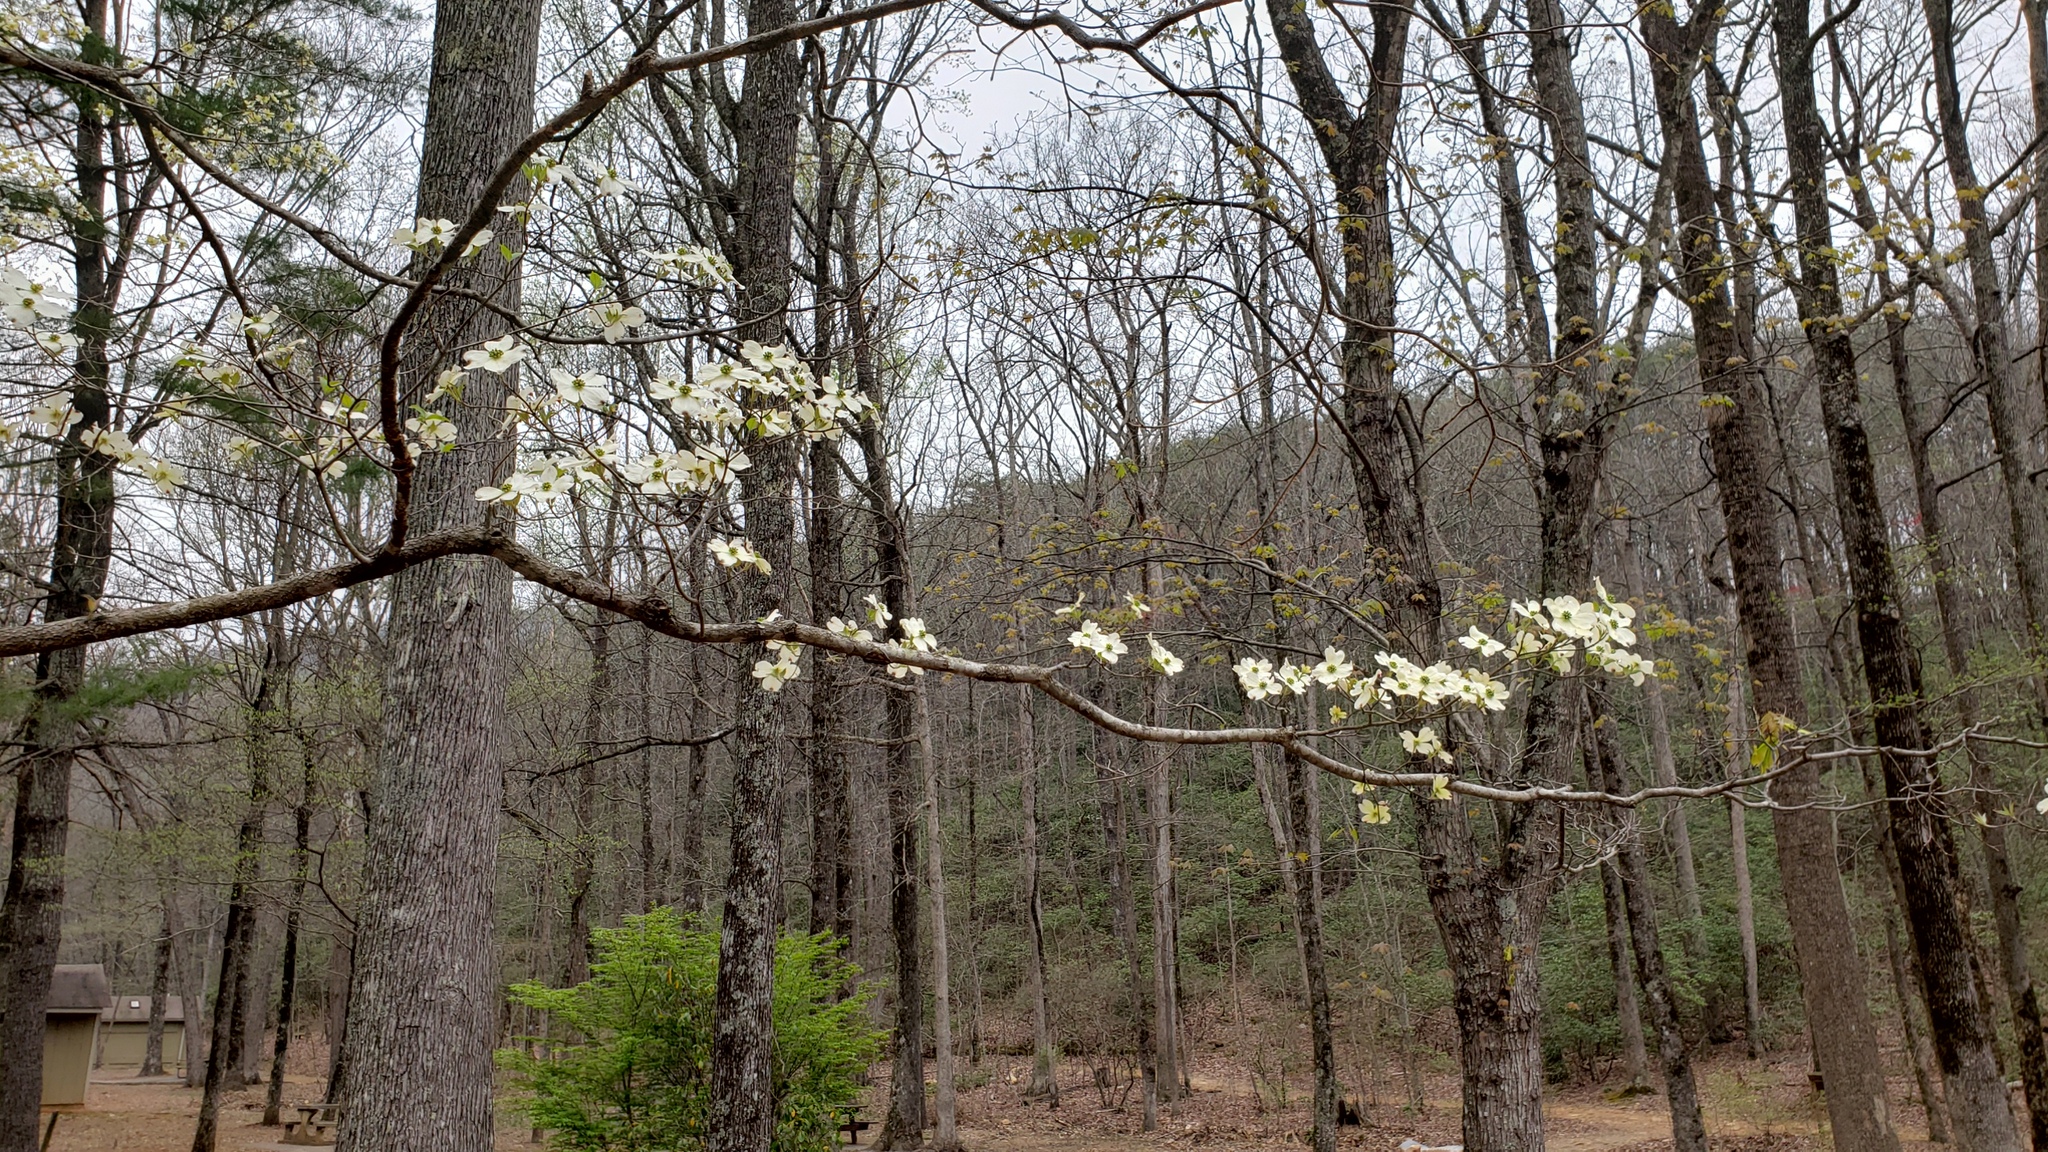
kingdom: Plantae
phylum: Tracheophyta
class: Magnoliopsida
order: Cornales
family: Cornaceae
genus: Cornus
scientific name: Cornus florida
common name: Flowering dogwood
